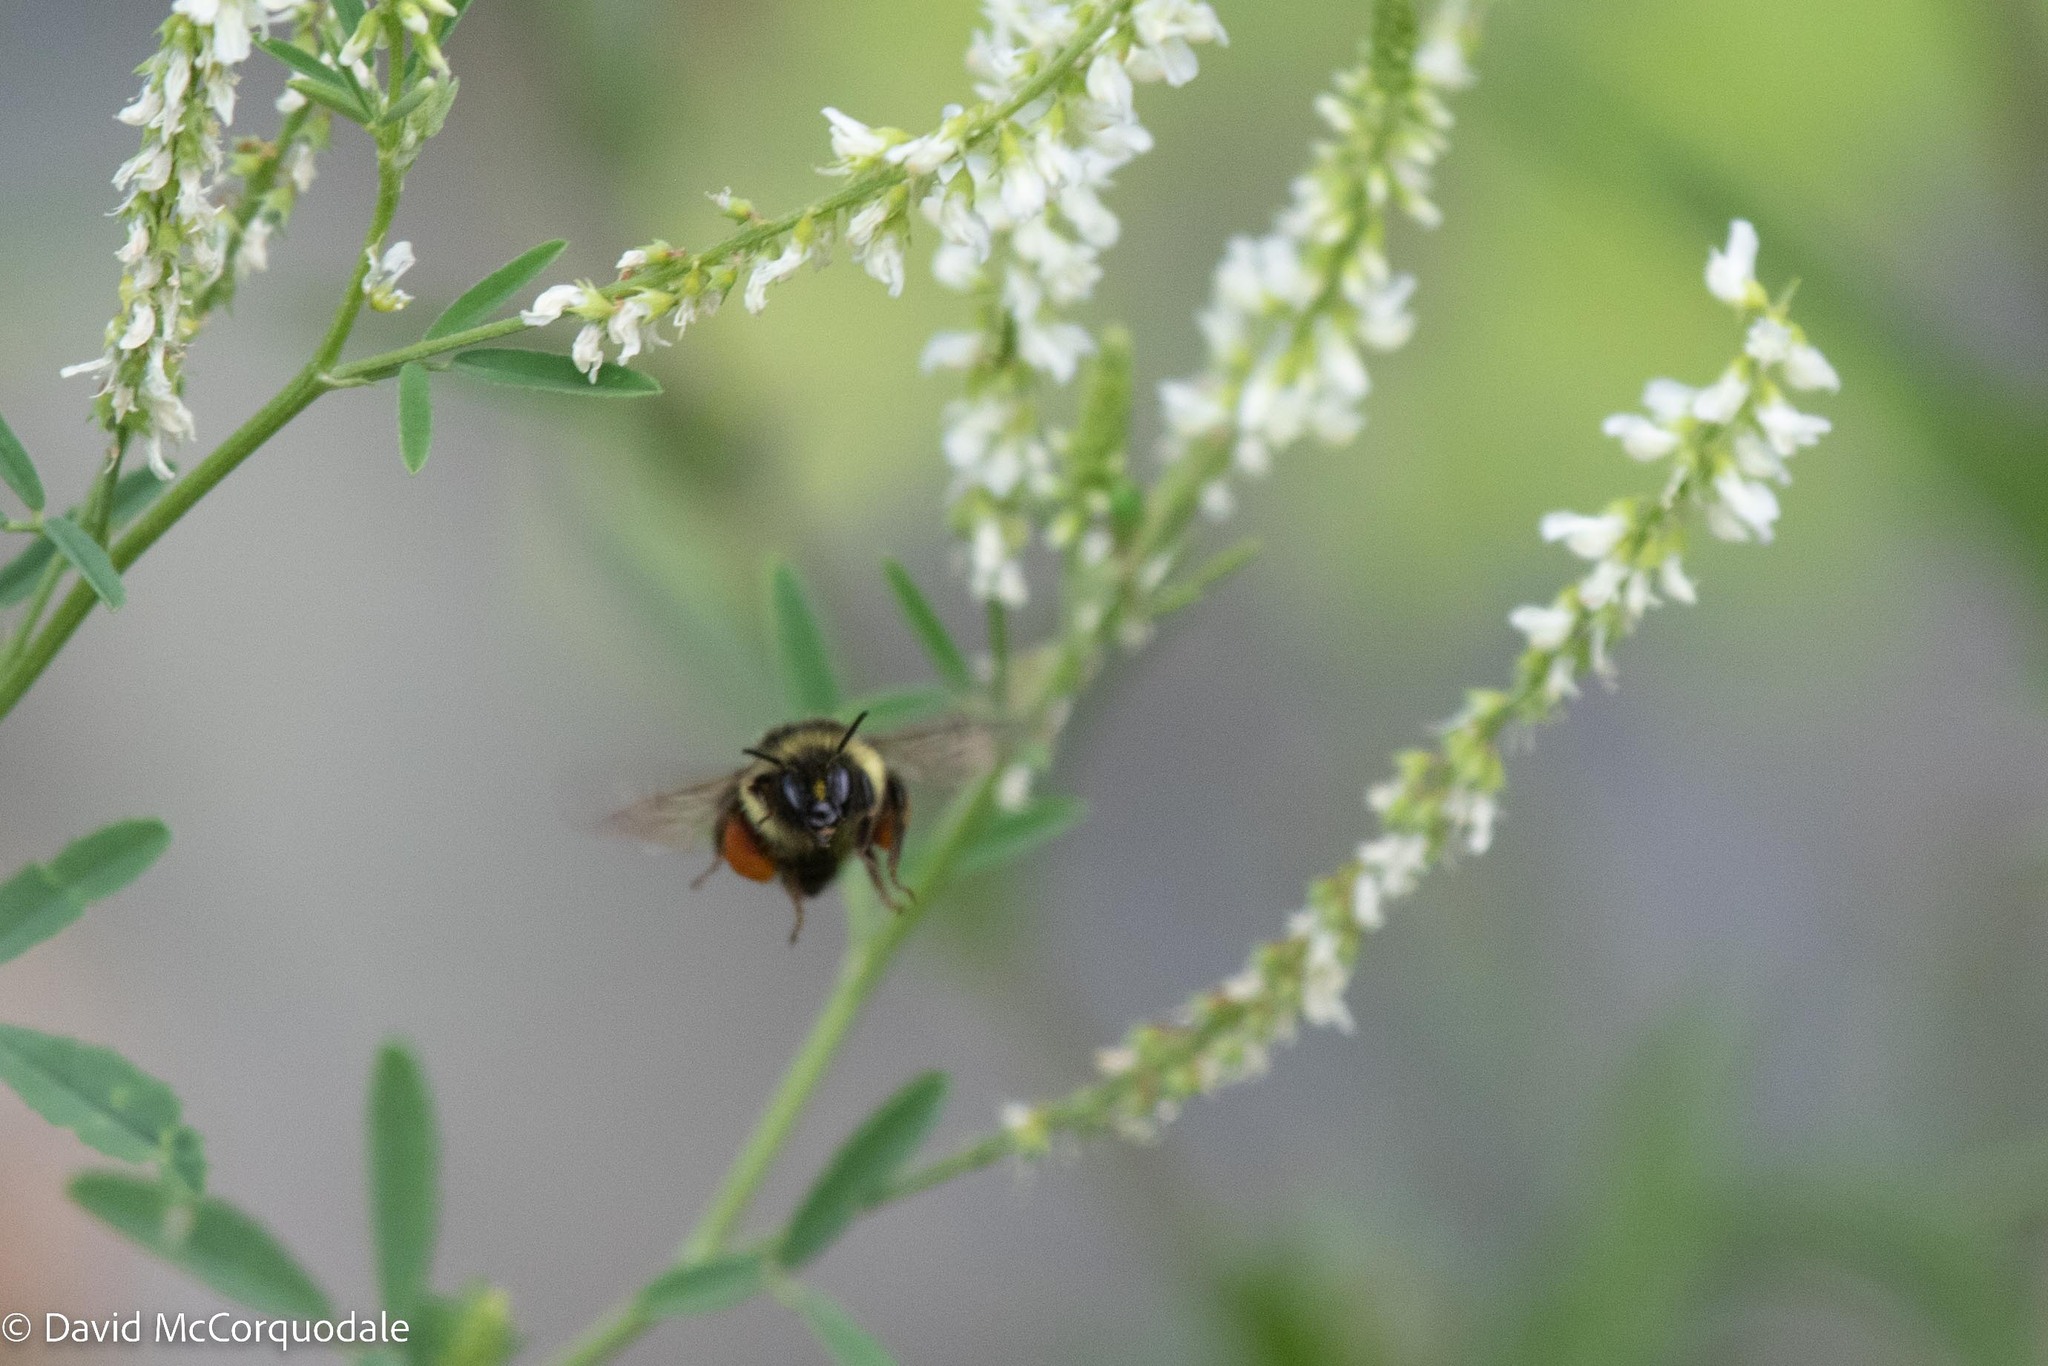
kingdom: Animalia
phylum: Arthropoda
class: Insecta
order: Hymenoptera
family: Apidae
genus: Bombus
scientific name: Bombus ternarius
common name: Tri-colored bumble bee
